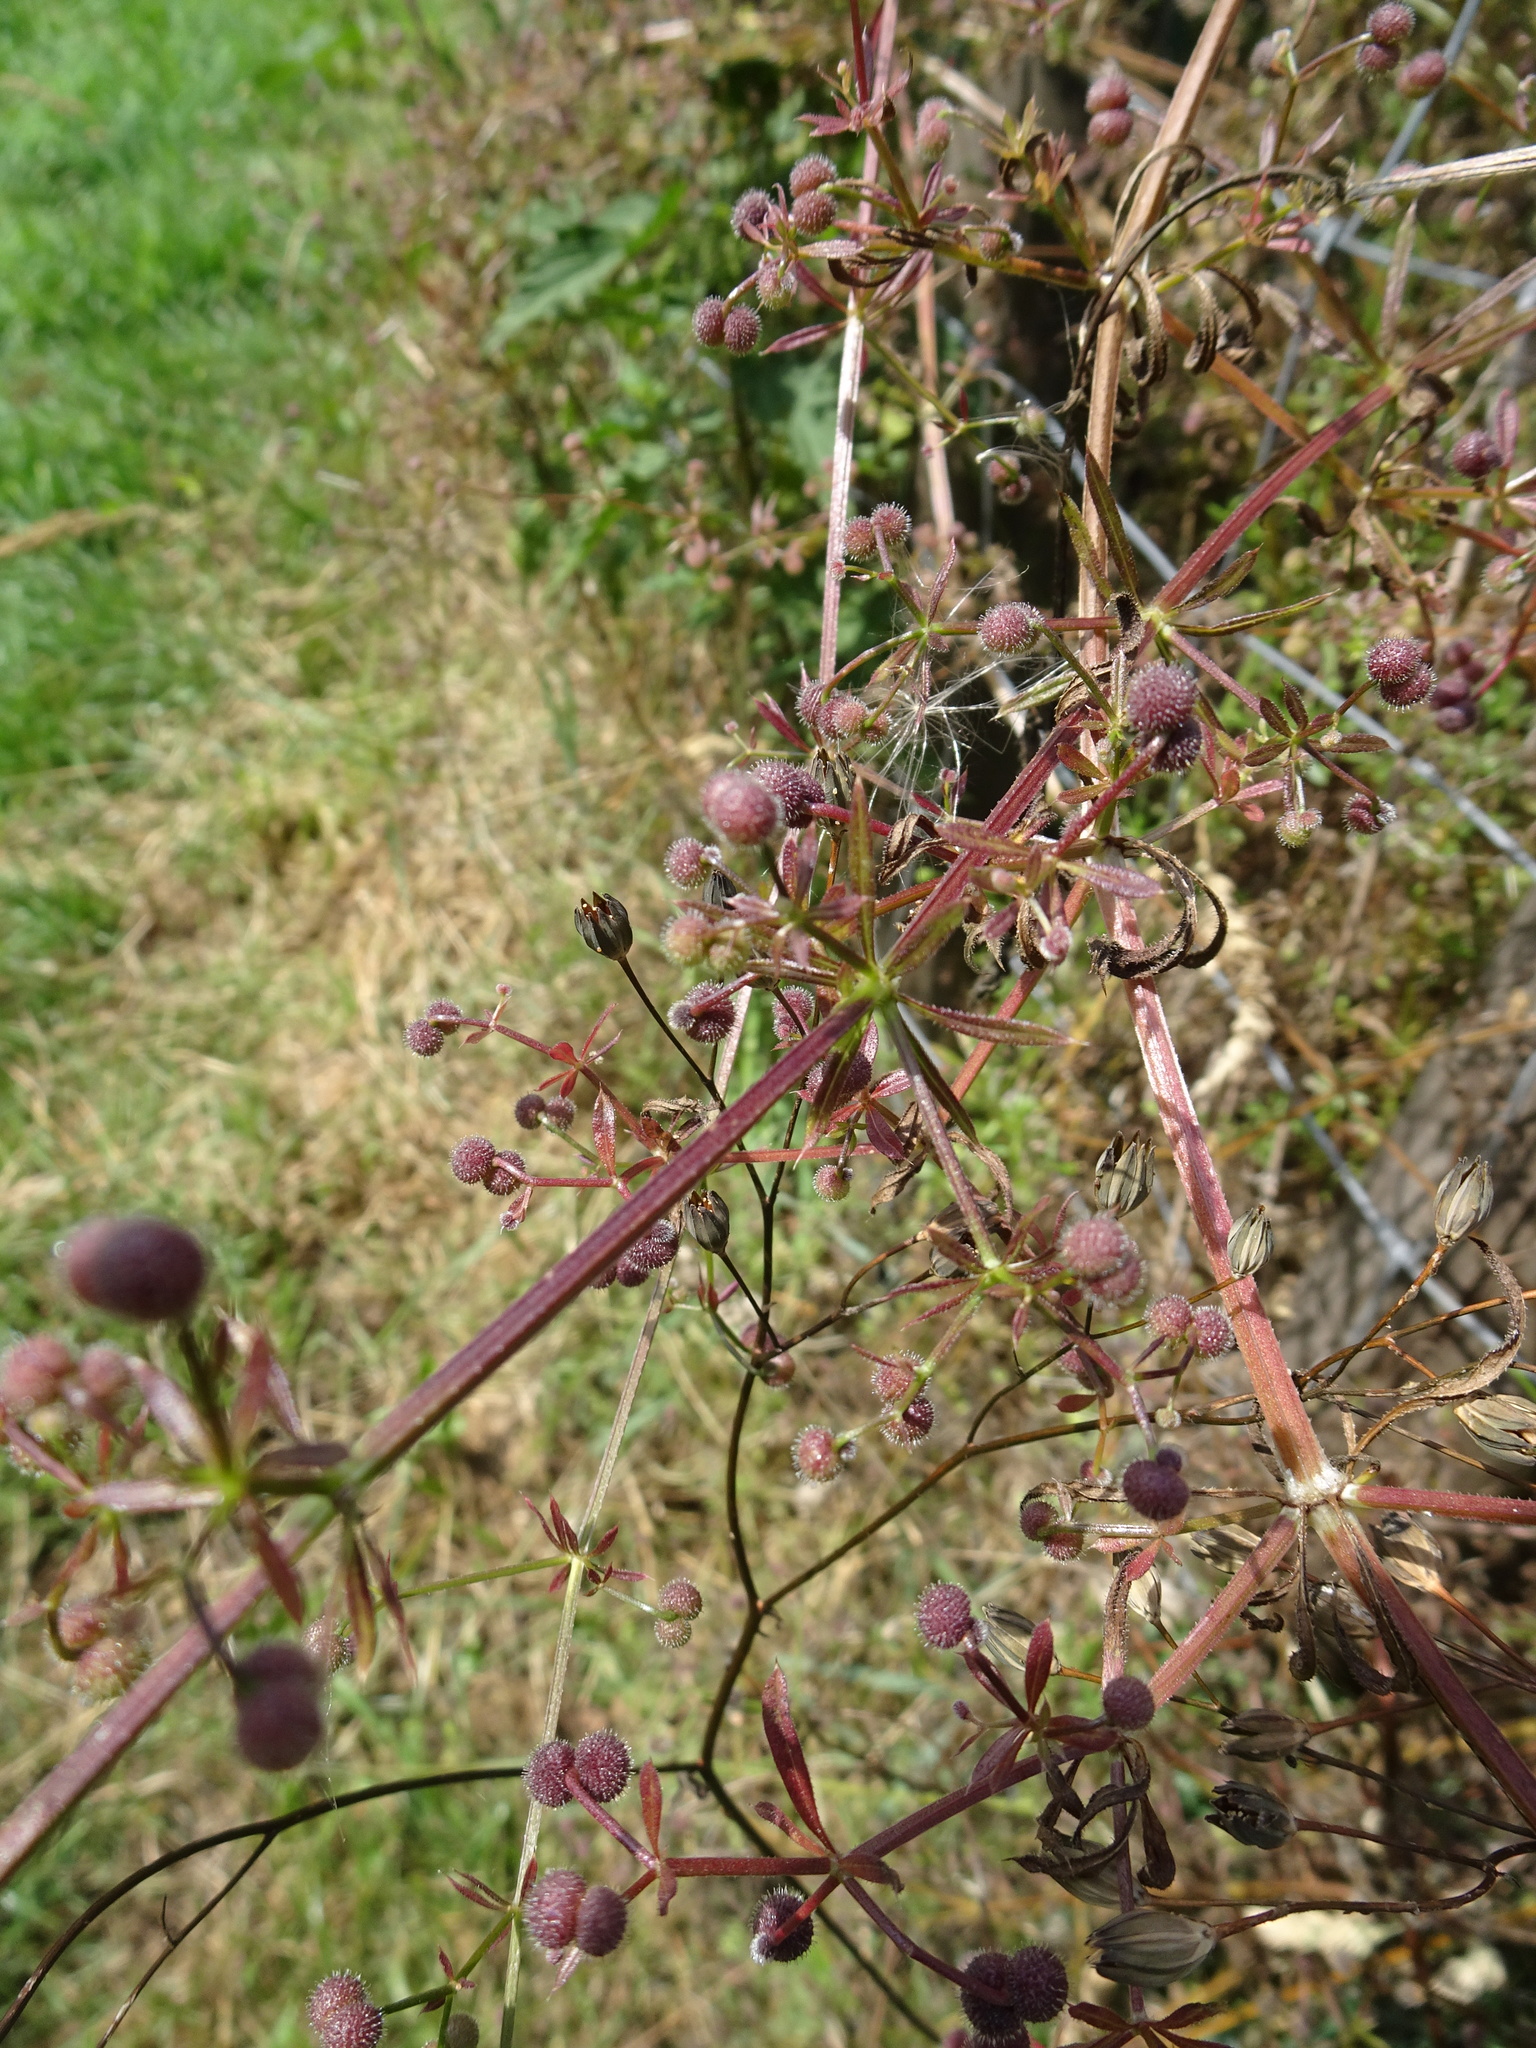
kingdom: Plantae
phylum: Tracheophyta
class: Magnoliopsida
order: Gentianales
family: Rubiaceae
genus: Galium
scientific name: Galium aparine
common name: Cleavers
